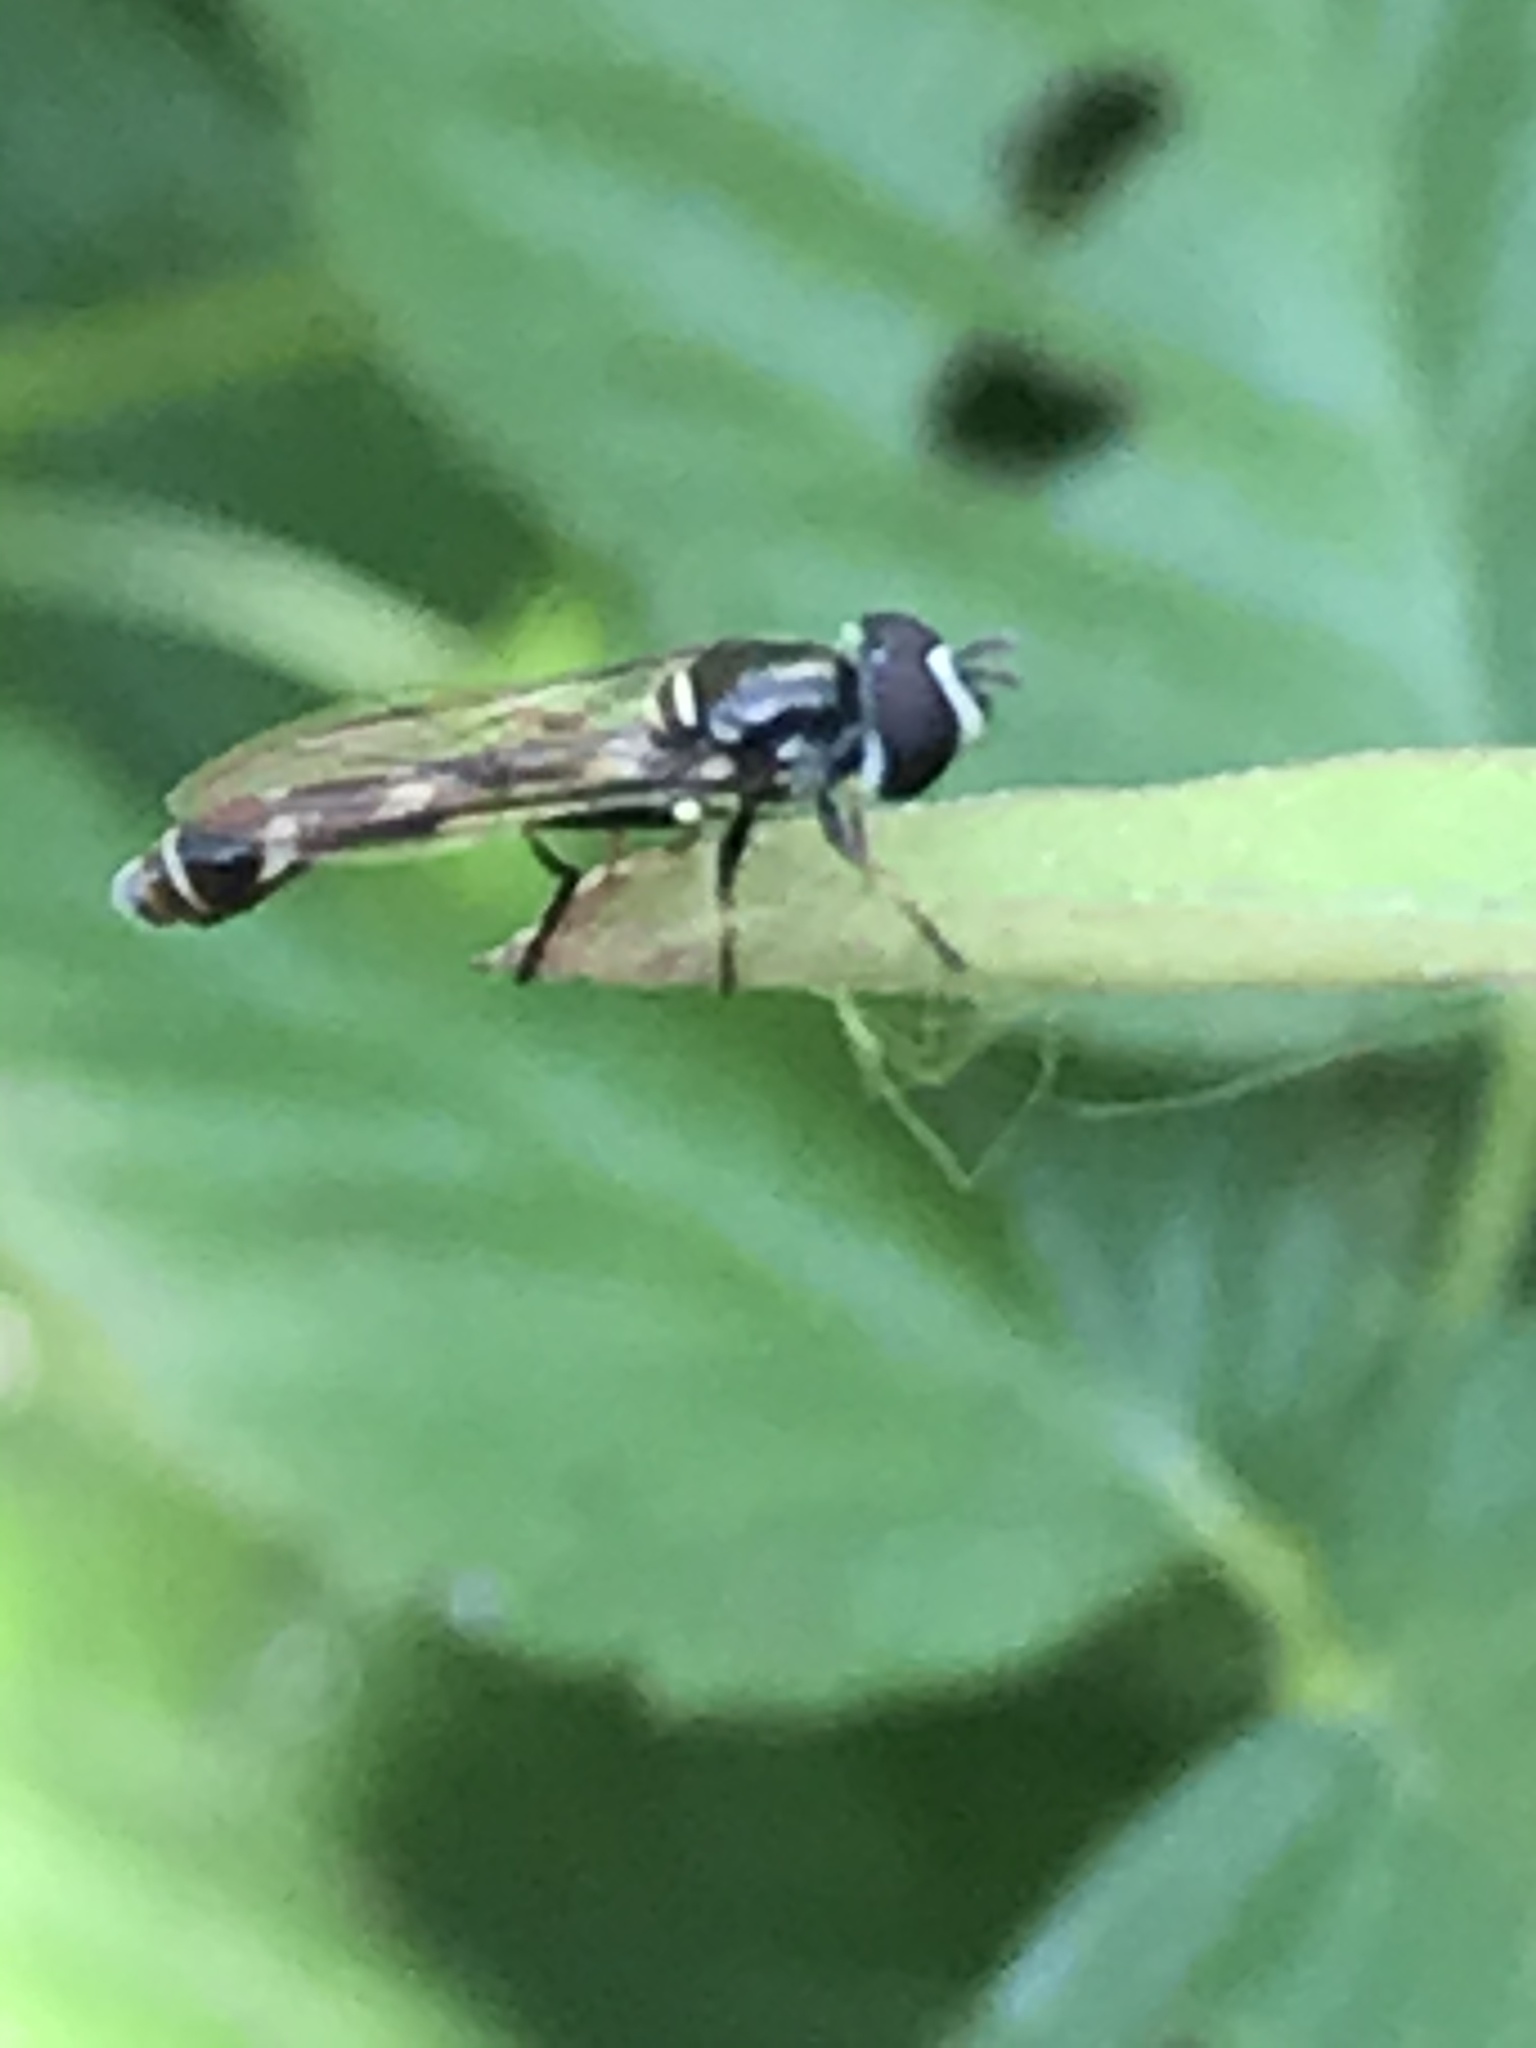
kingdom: Animalia
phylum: Arthropoda
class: Insecta
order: Diptera
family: Syrphidae
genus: Dioprosopa
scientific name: Dioprosopa clavatus
